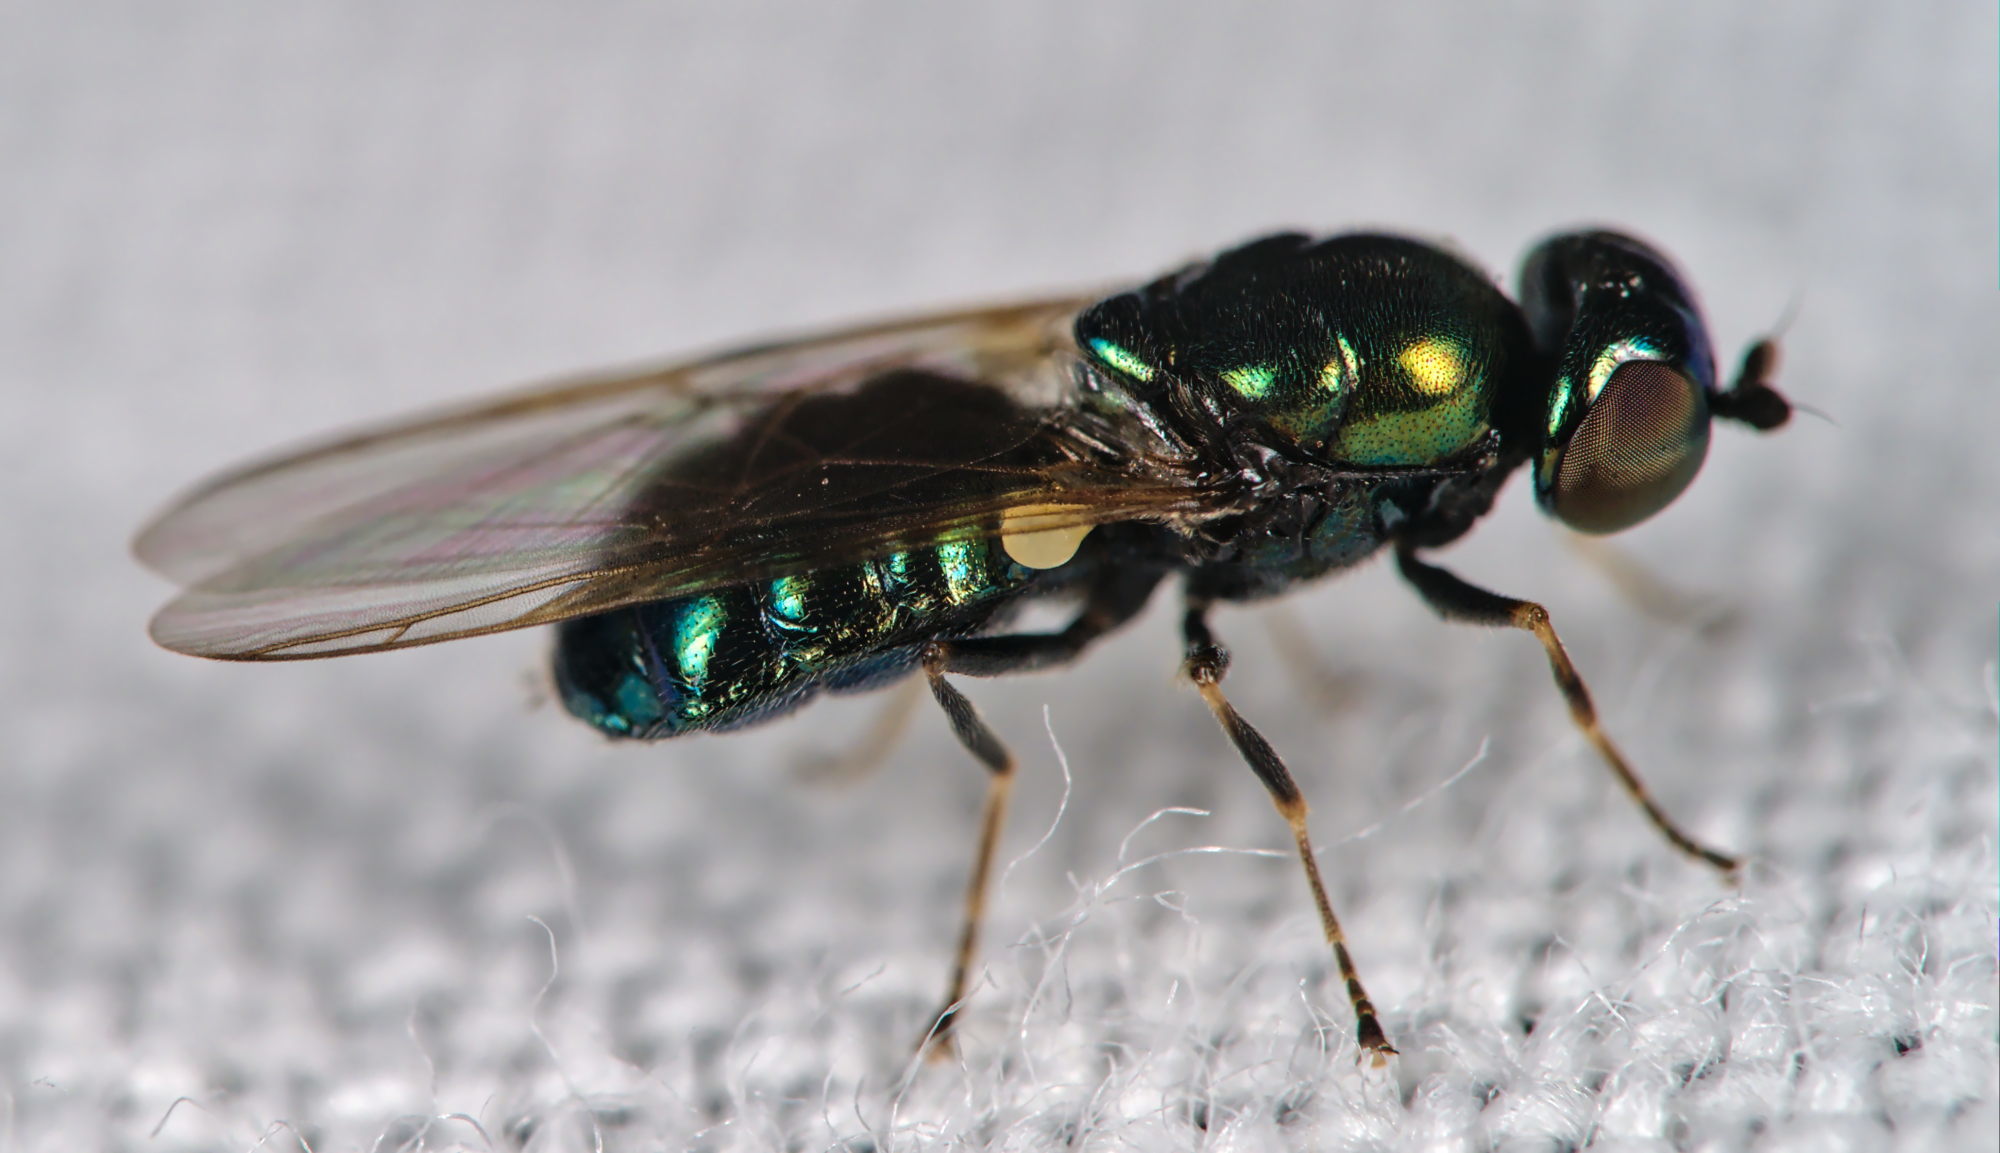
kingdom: Animalia
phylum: Arthropoda
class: Insecta
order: Diptera
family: Stratiomyidae
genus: Microchrysa
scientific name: Microchrysa polita
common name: Black-horned gem
